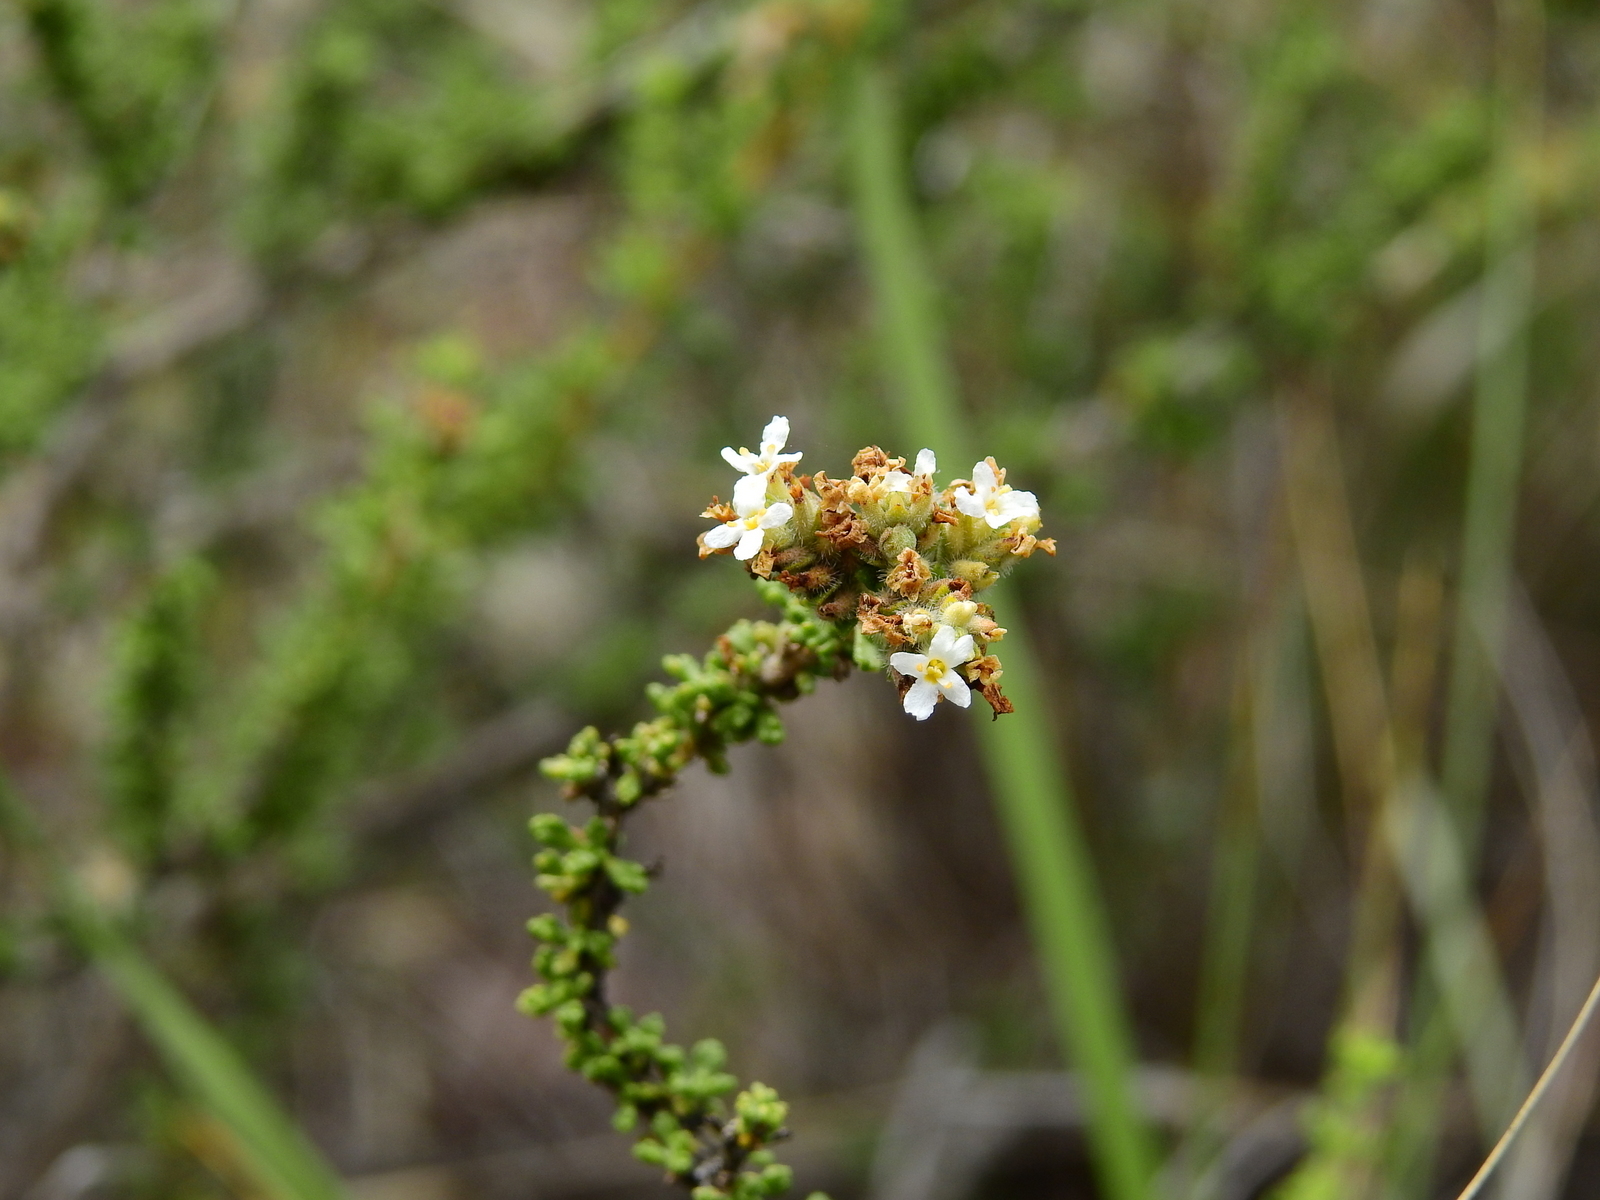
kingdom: Plantae
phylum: Tracheophyta
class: Magnoliopsida
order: Lamiales
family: Verbenaceae
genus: Acantholippia
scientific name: Acantholippia seriphioides
